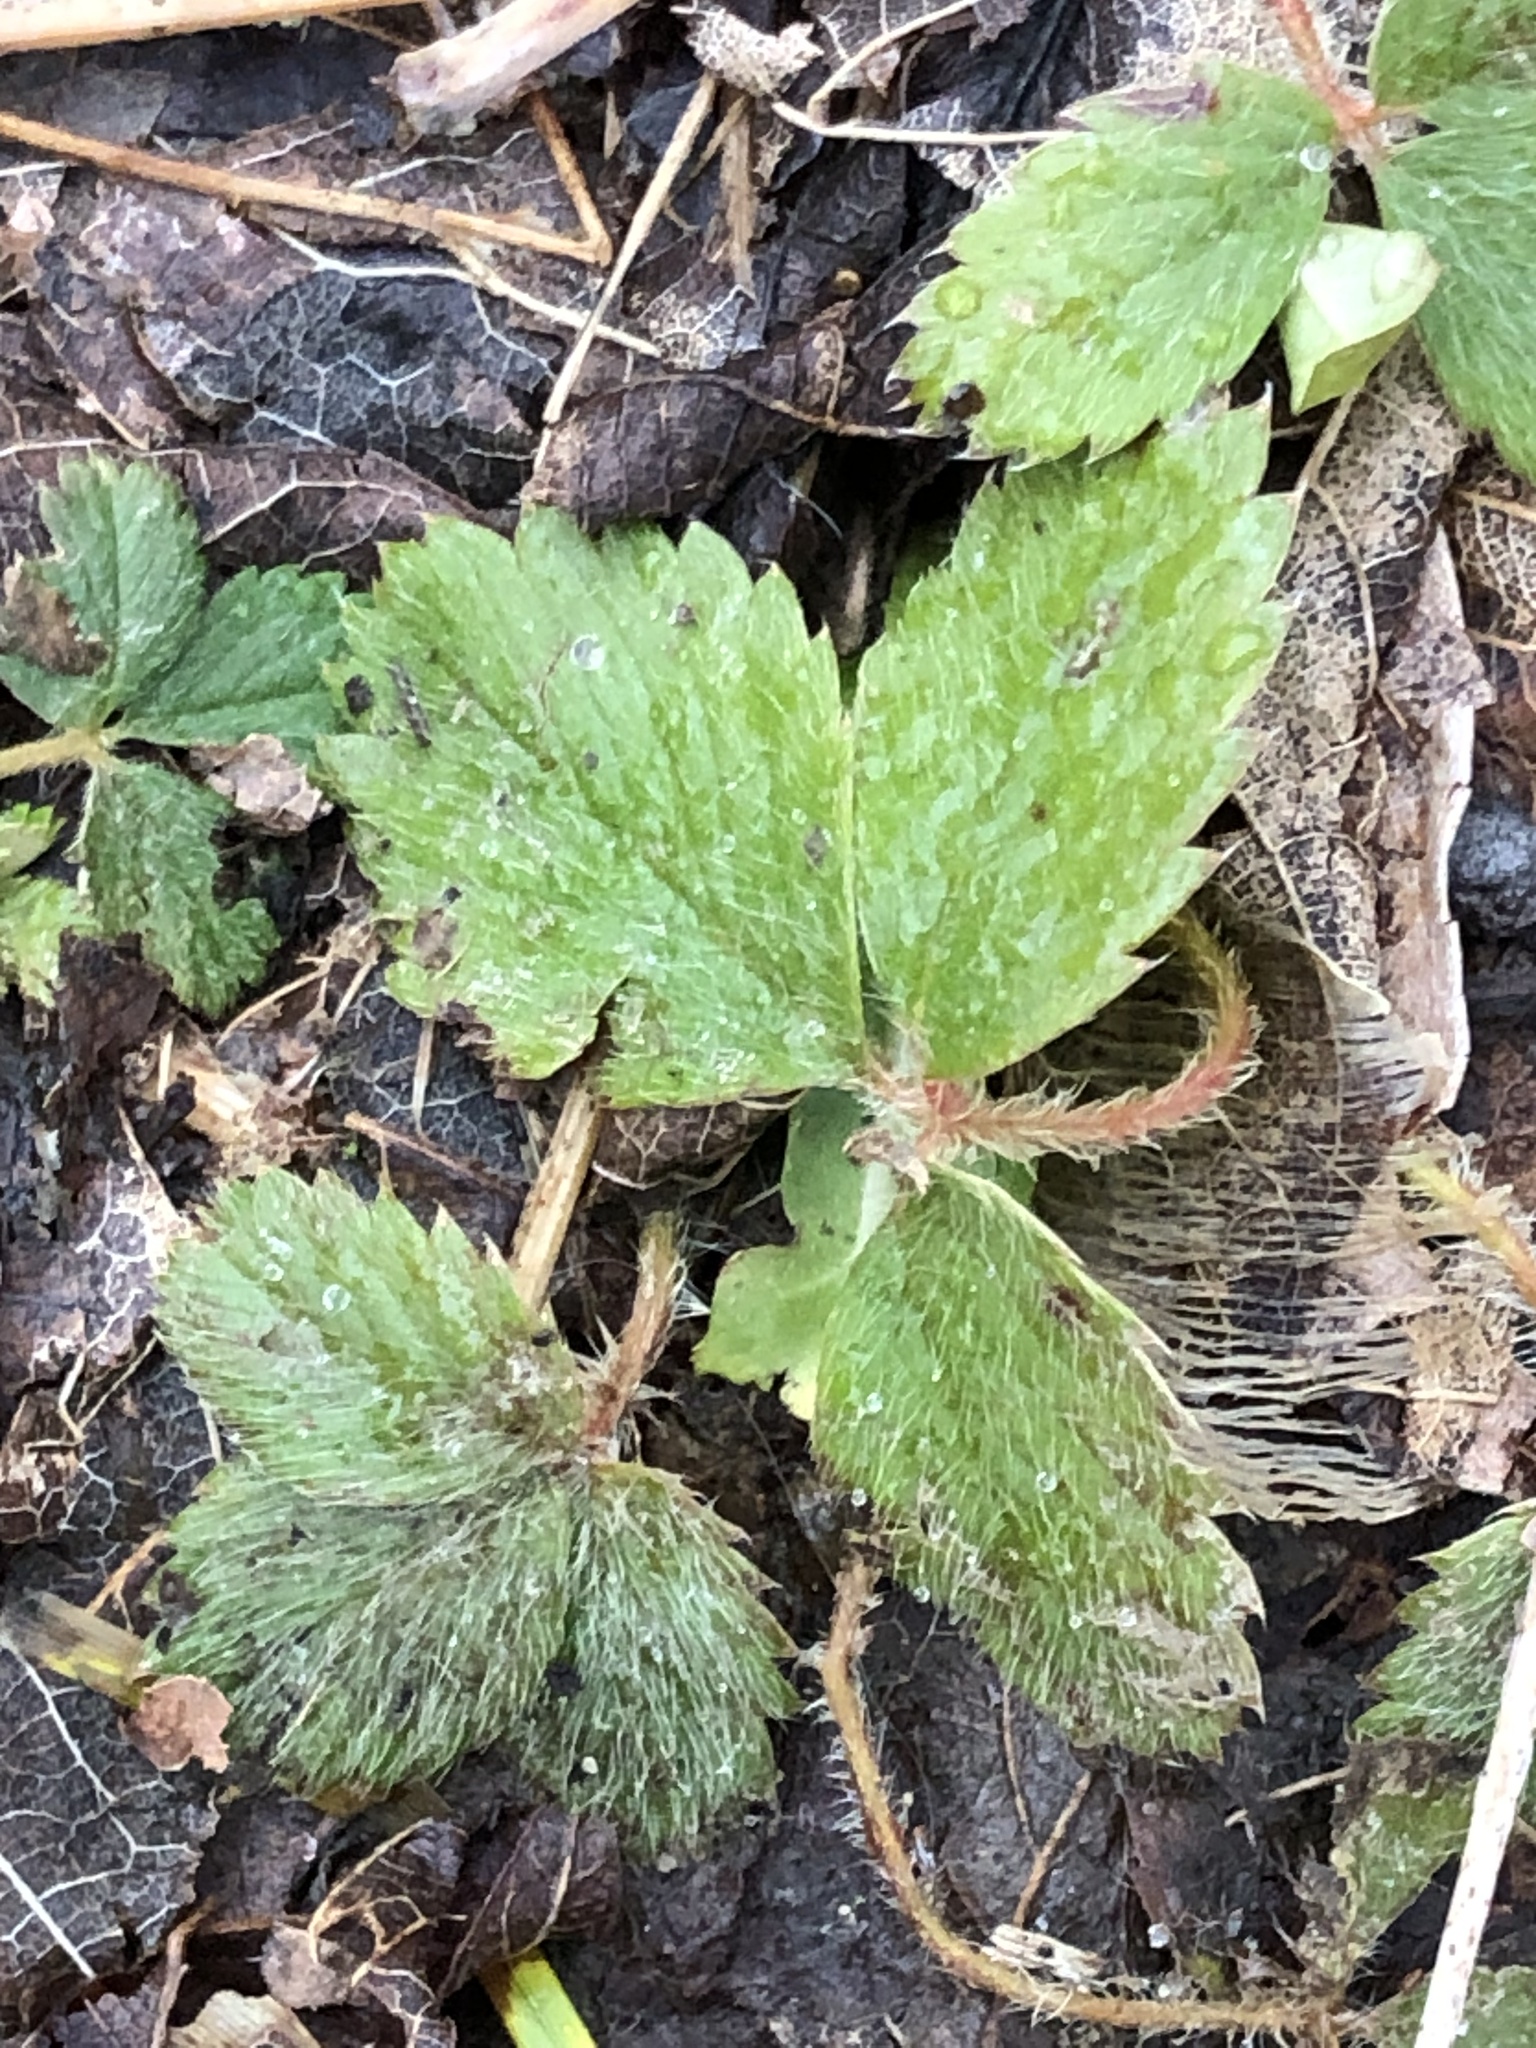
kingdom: Plantae
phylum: Tracheophyta
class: Magnoliopsida
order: Rosales
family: Rosaceae
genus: Fragaria
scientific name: Fragaria virginiana
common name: Thickleaved wild strawberry
